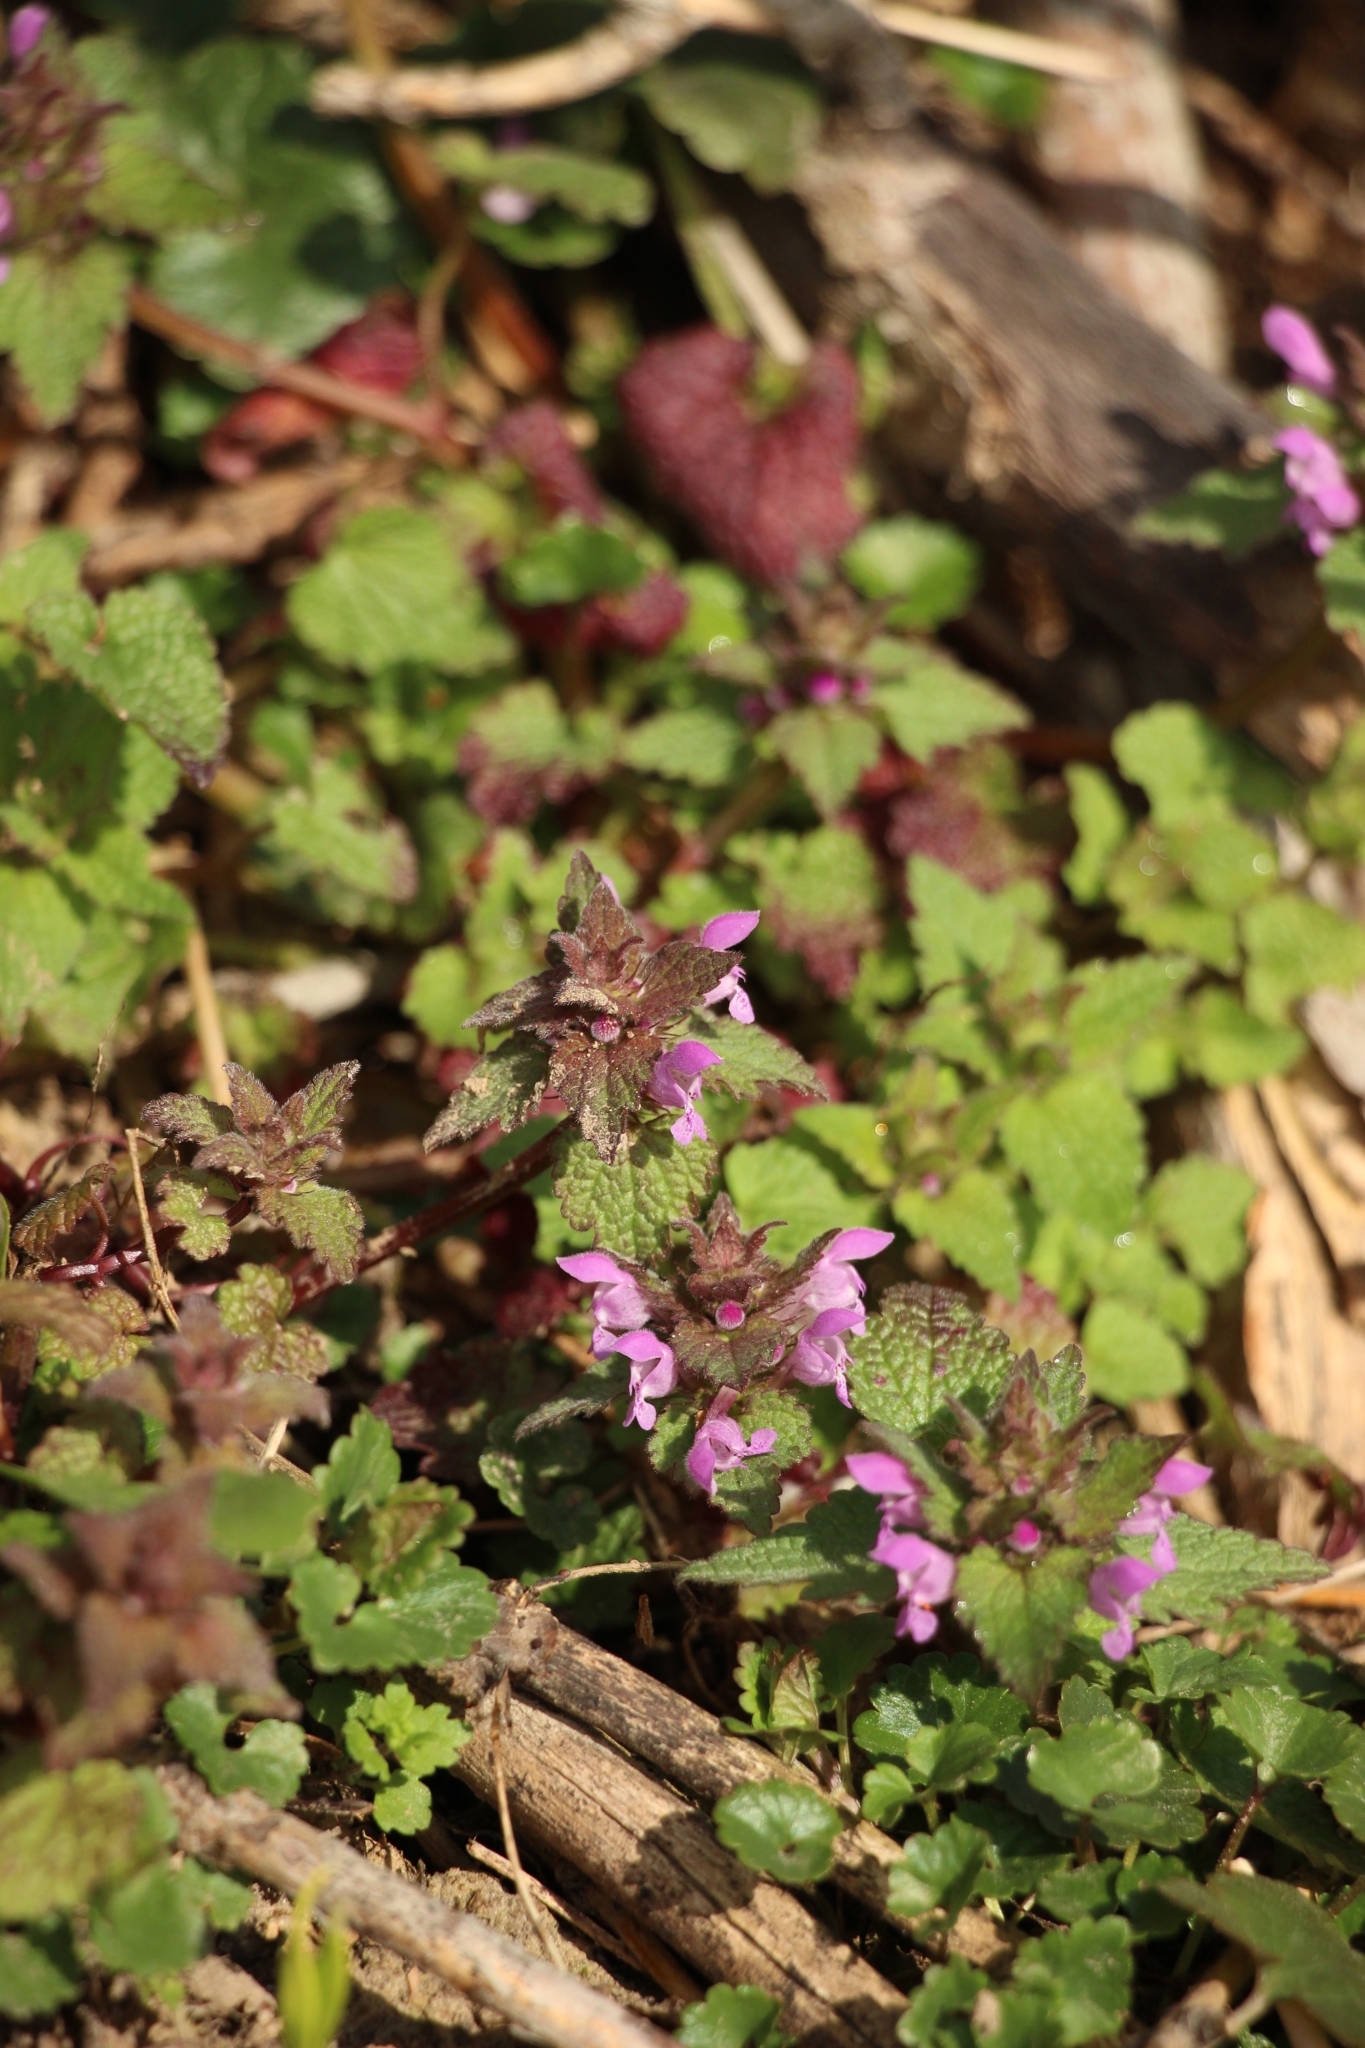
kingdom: Plantae
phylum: Tracheophyta
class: Magnoliopsida
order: Lamiales
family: Lamiaceae
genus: Lamium
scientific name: Lamium purpureum
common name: Red dead-nettle
